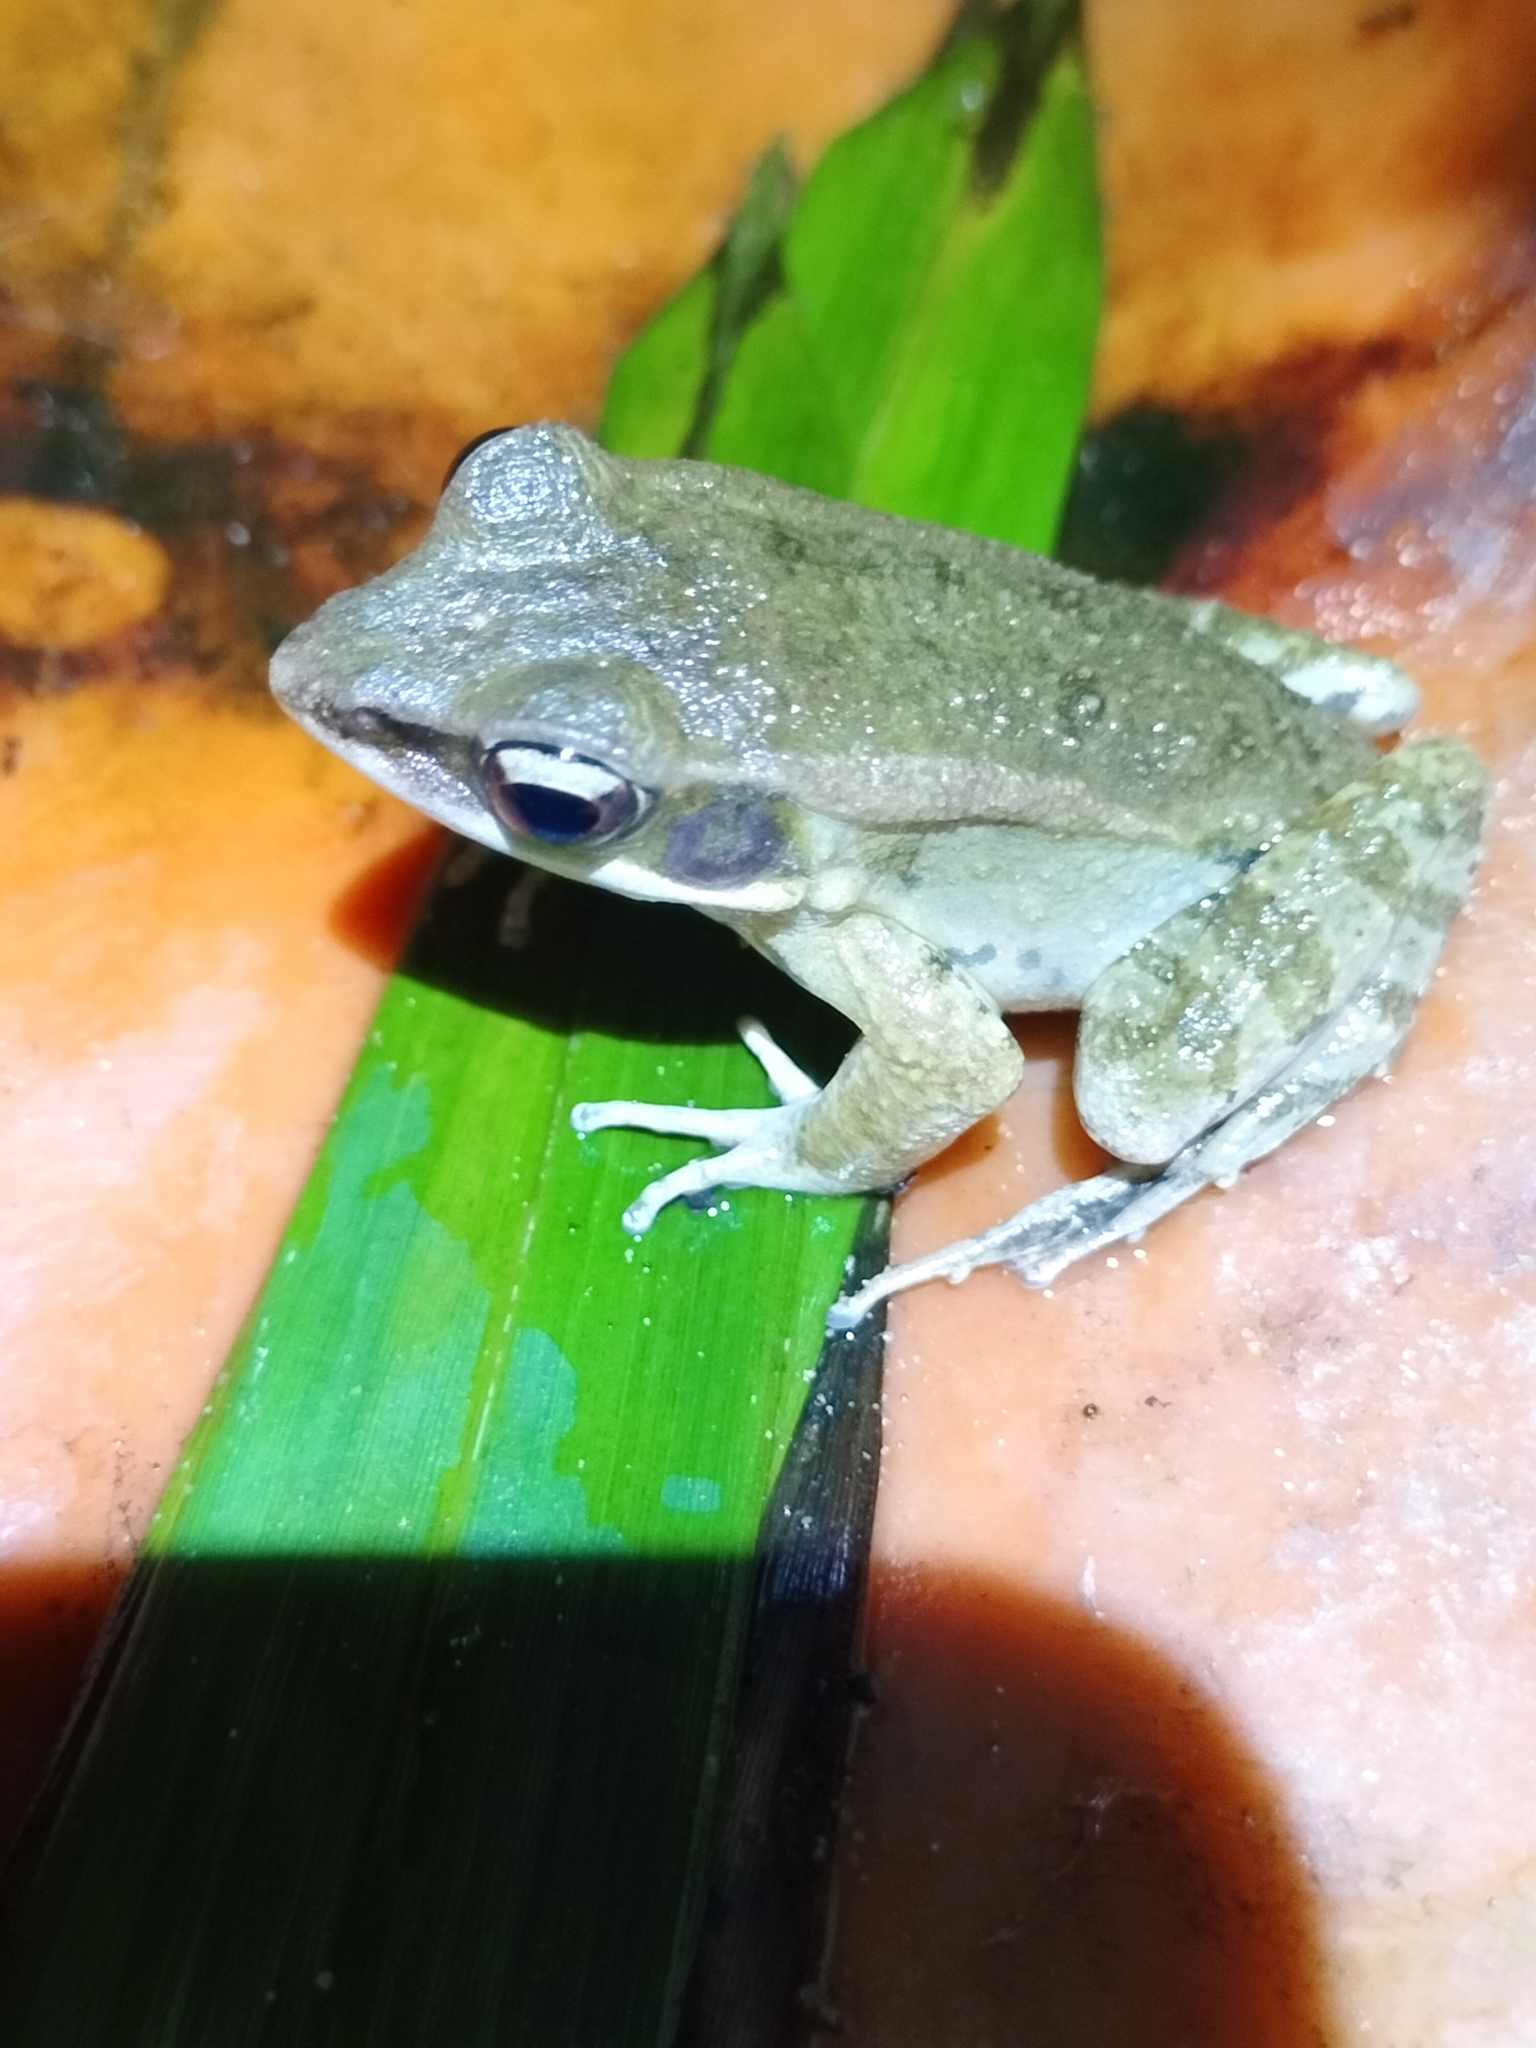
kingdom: Animalia
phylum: Chordata
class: Amphibia
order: Anura
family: Ranidae
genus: Hylarana
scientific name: Hylarana latouchii
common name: Broad-folded frog
